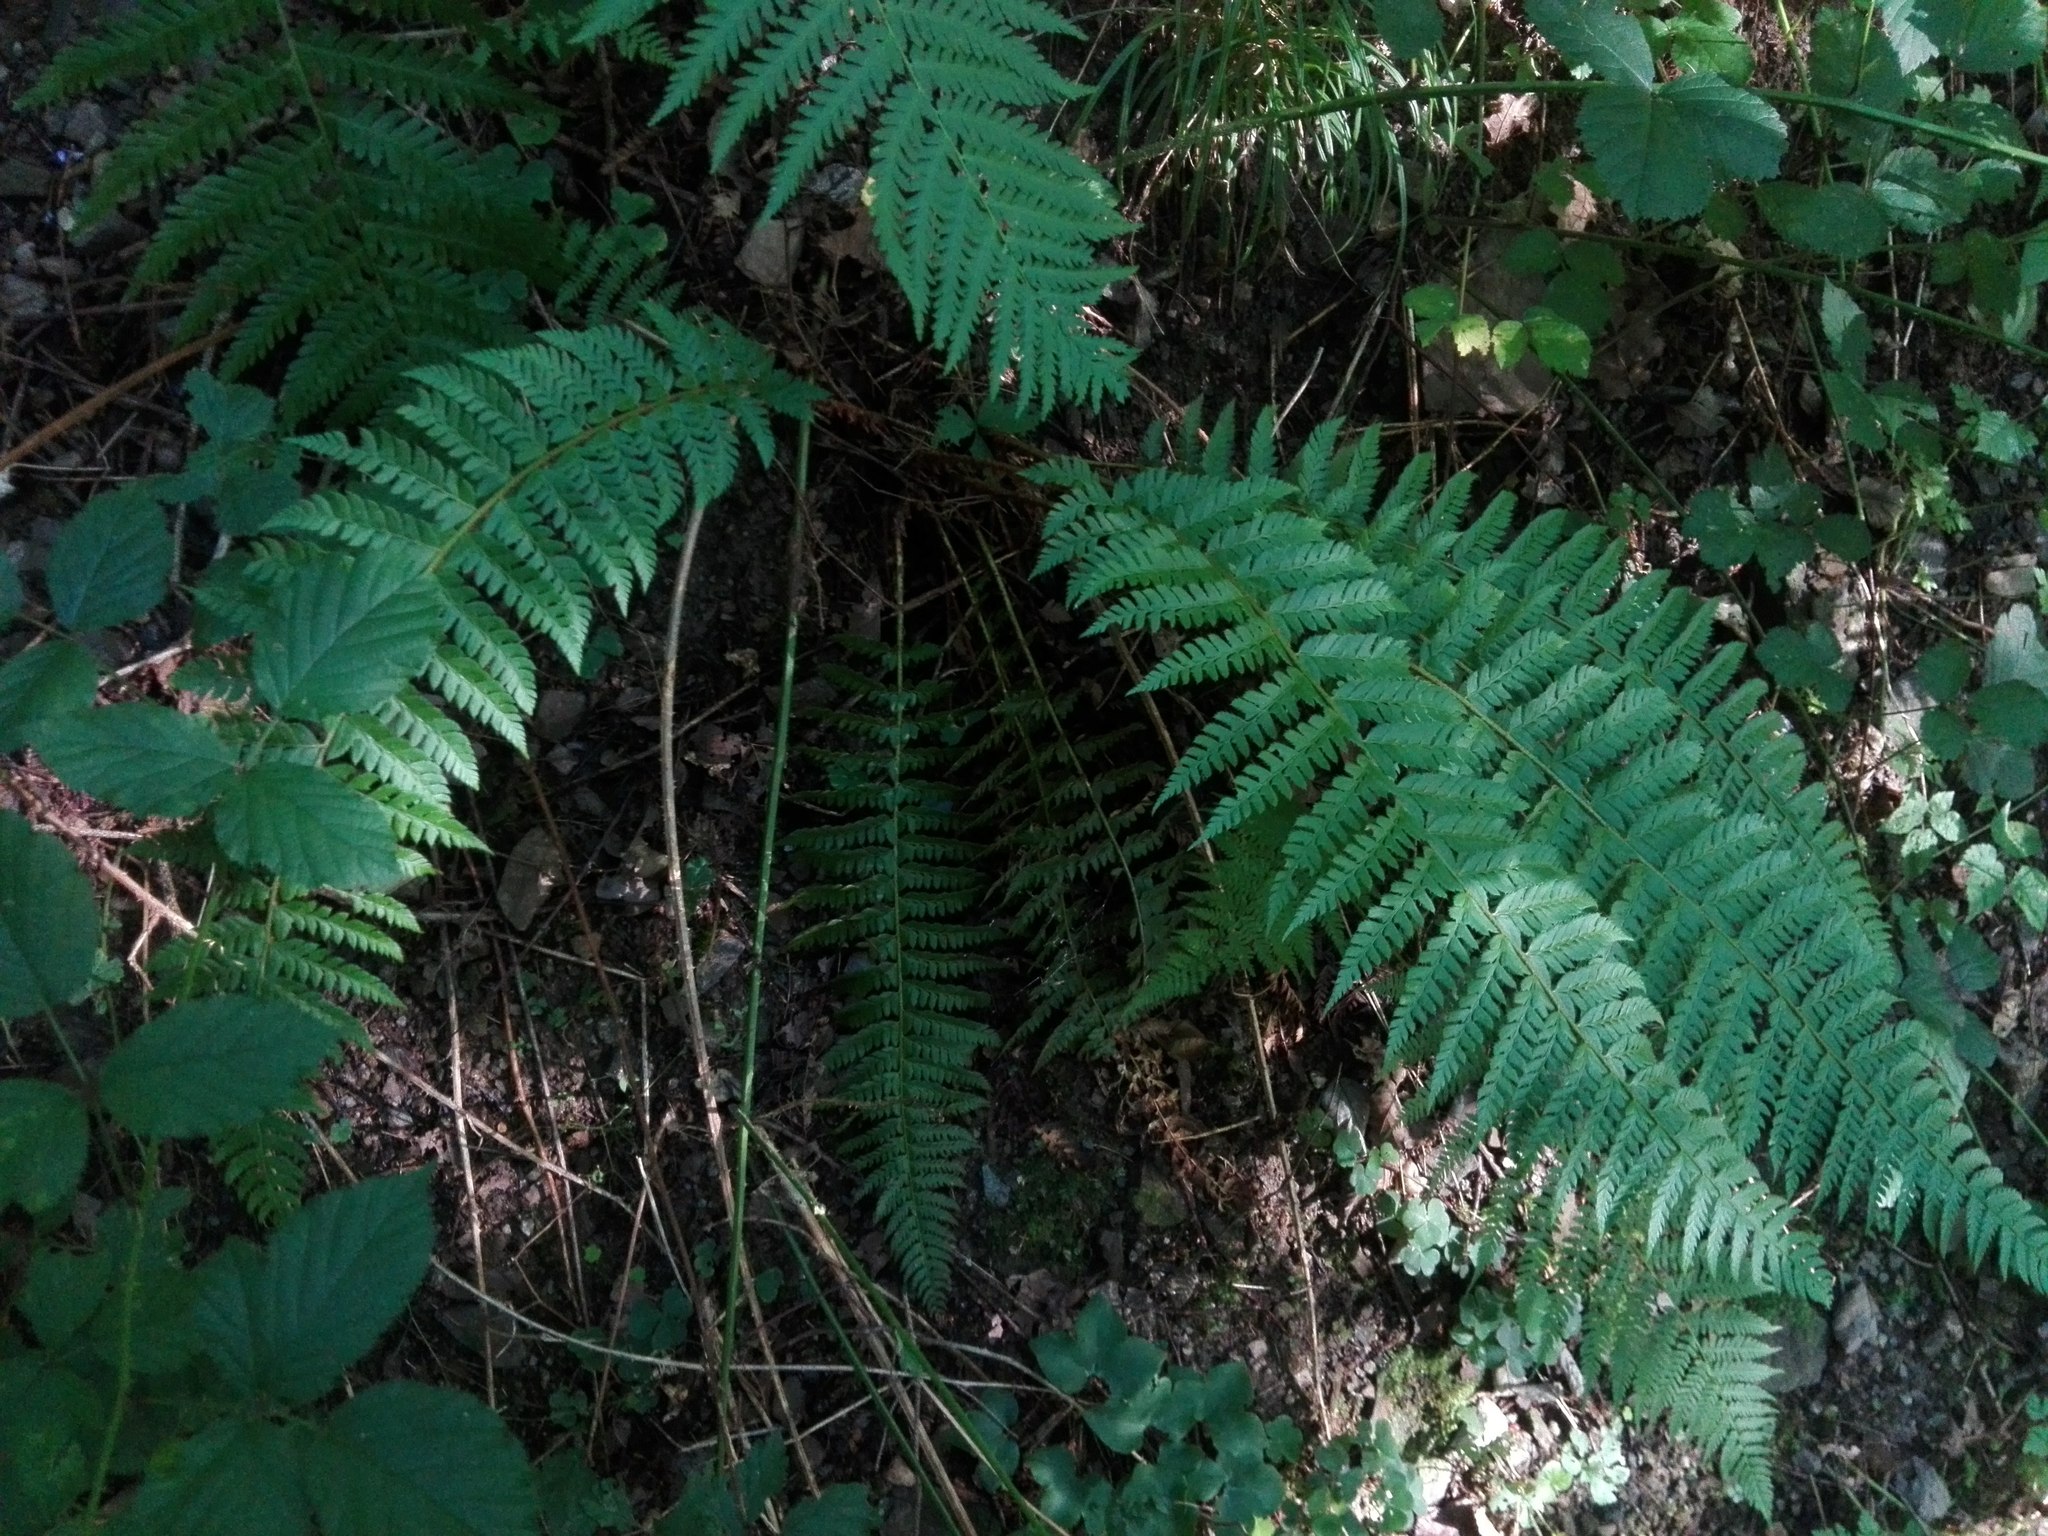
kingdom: Plantae
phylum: Tracheophyta
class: Polypodiopsida
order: Polypodiales
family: Dryopteridaceae
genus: Polystichum
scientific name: Polystichum aculeatum
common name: Hard shield-fern
